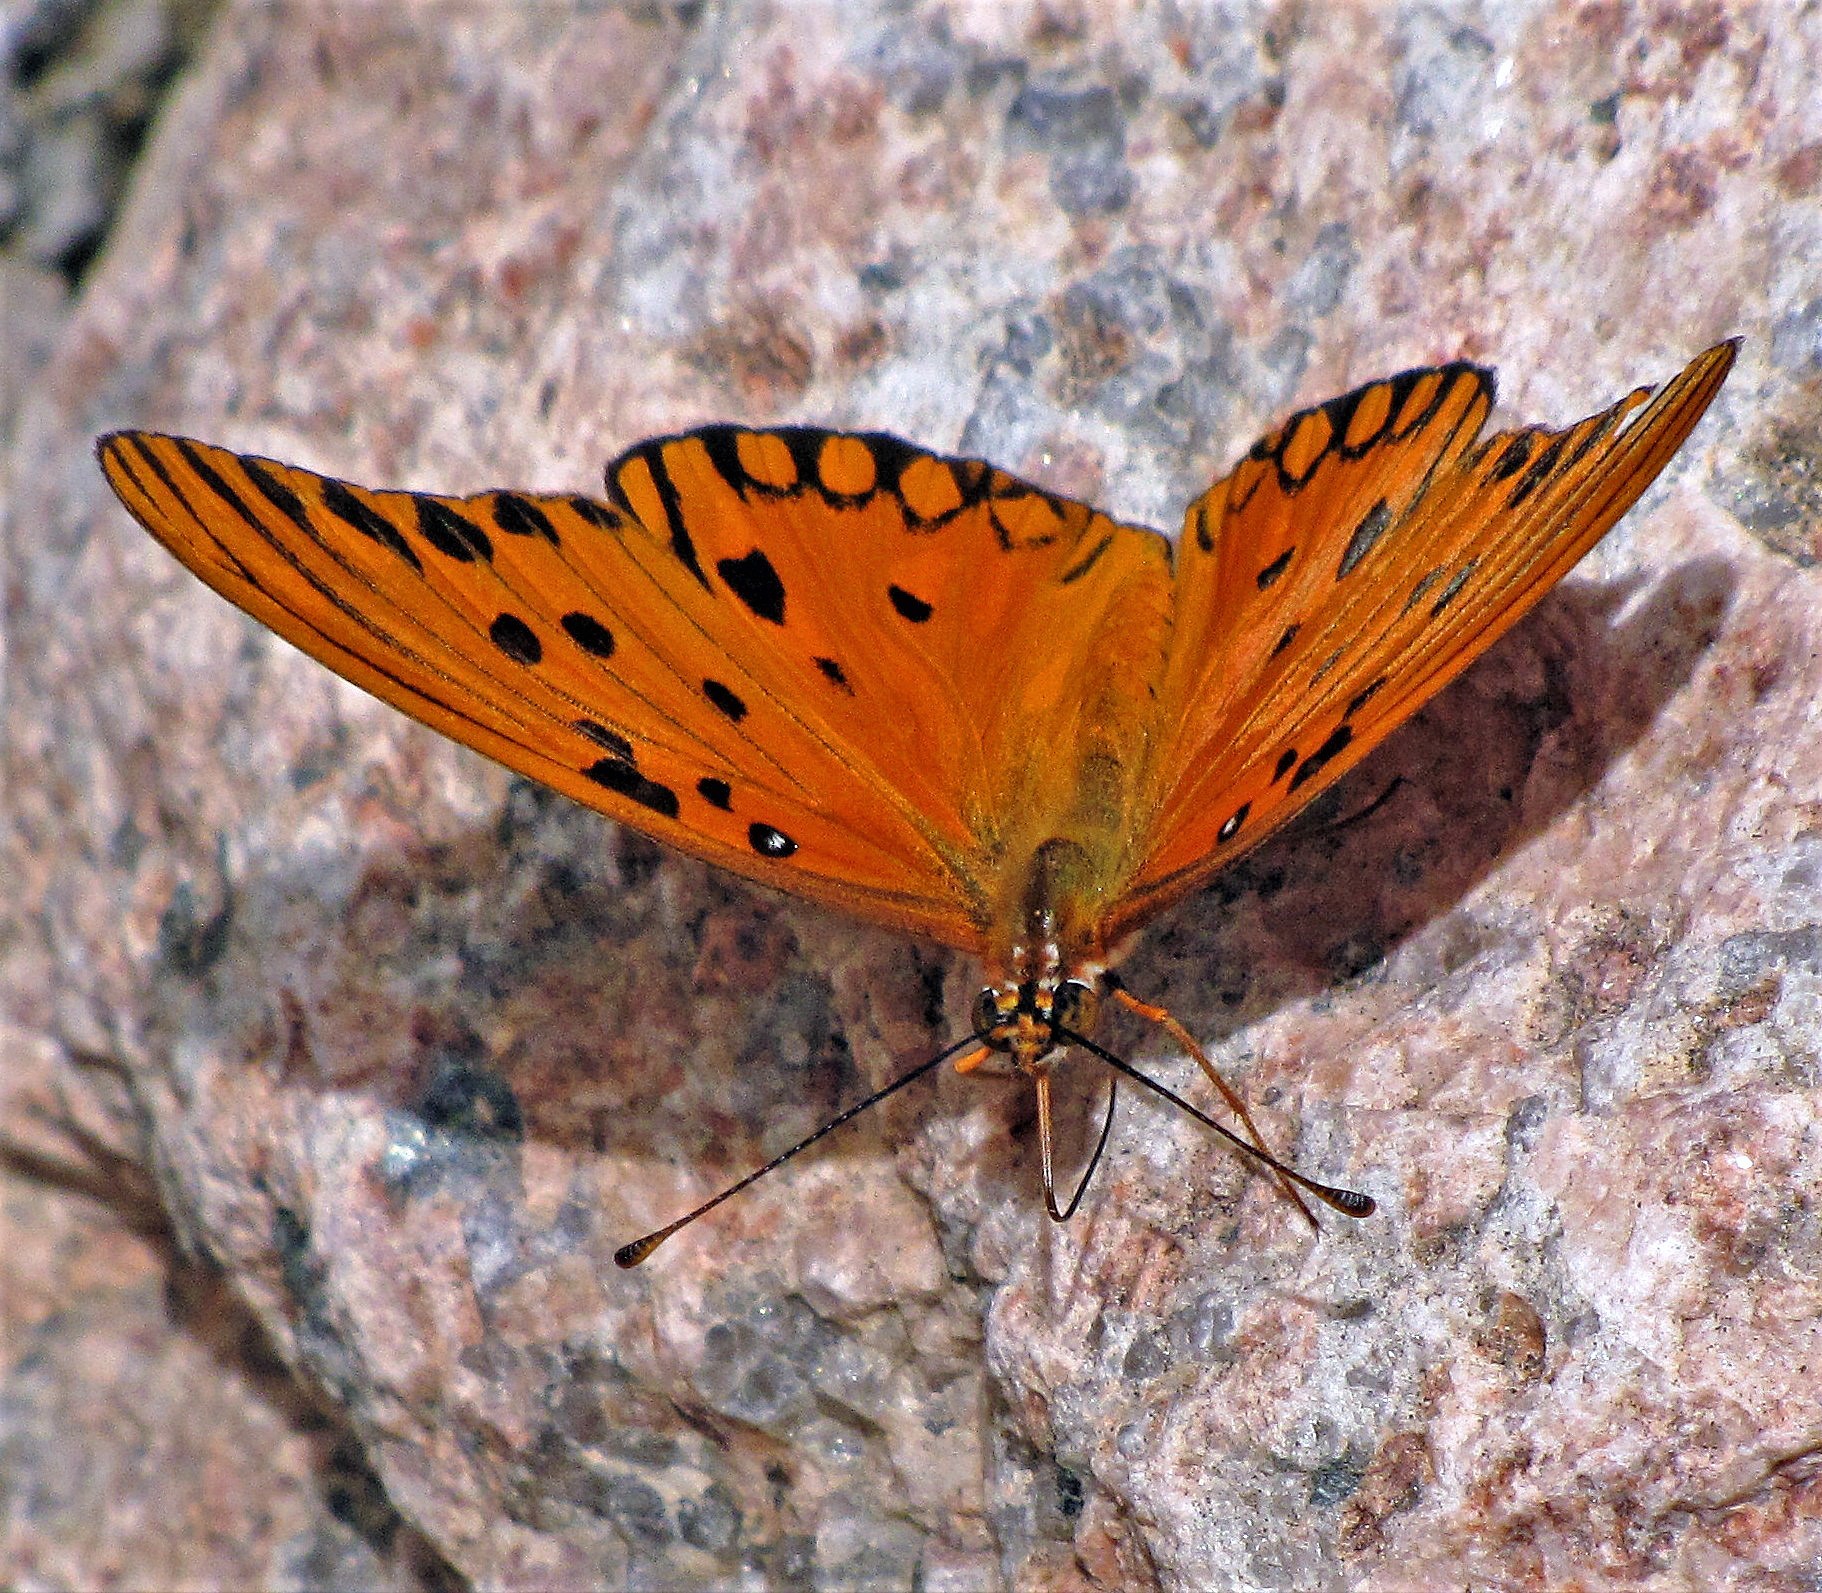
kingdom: Animalia
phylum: Arthropoda
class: Insecta
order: Lepidoptera
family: Nymphalidae
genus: Dione
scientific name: Dione vanillae
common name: Gulf fritillary
